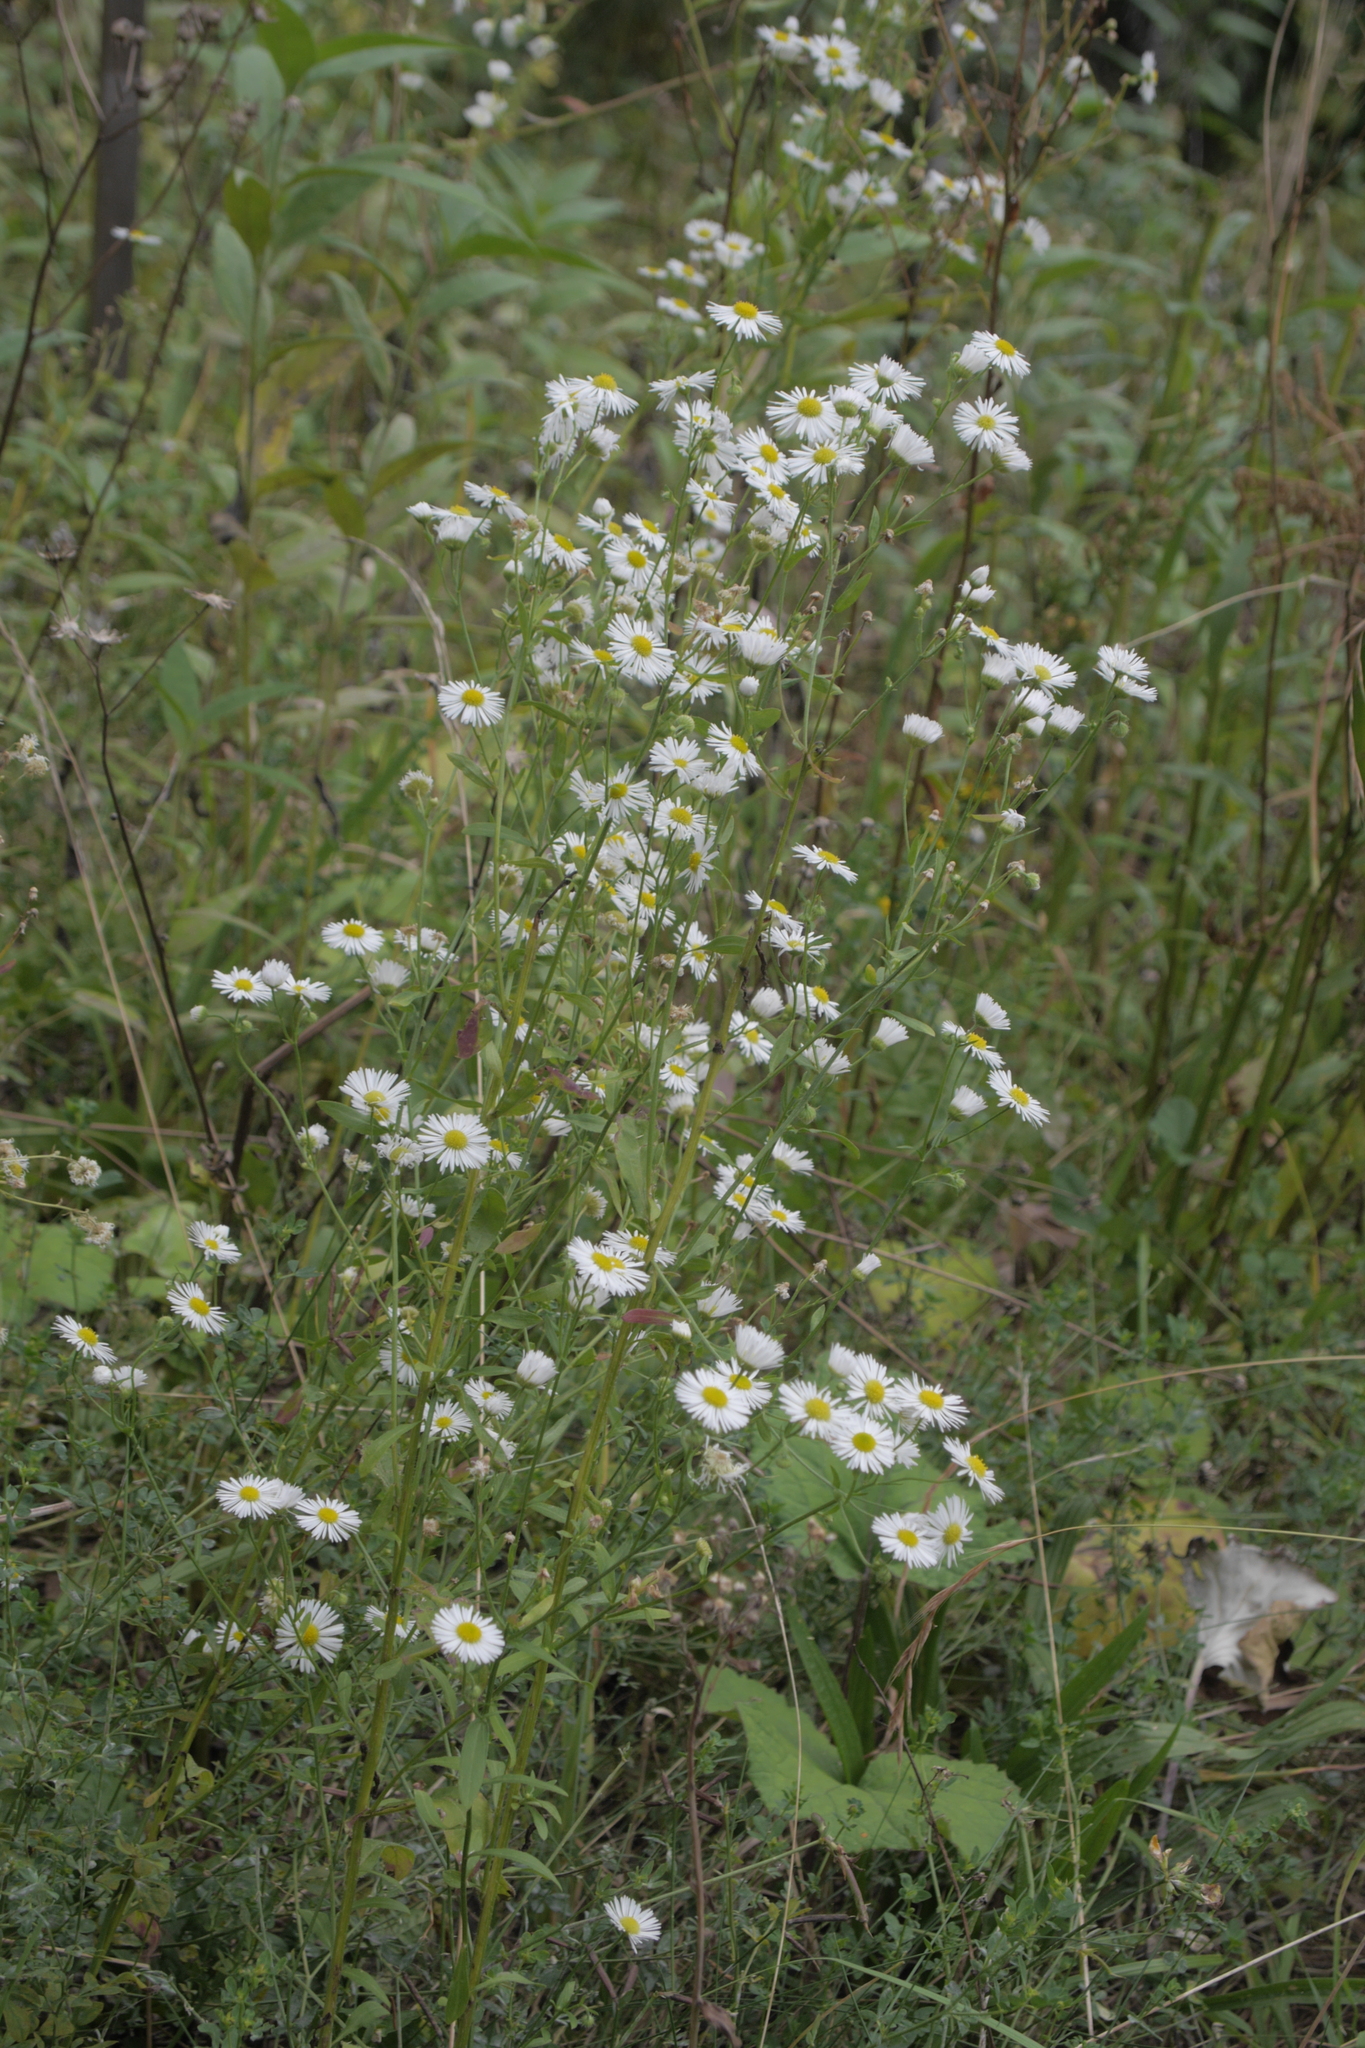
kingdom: Plantae
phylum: Tracheophyta
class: Magnoliopsida
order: Asterales
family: Asteraceae
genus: Erigeron
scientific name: Erigeron annuus
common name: Tall fleabane
